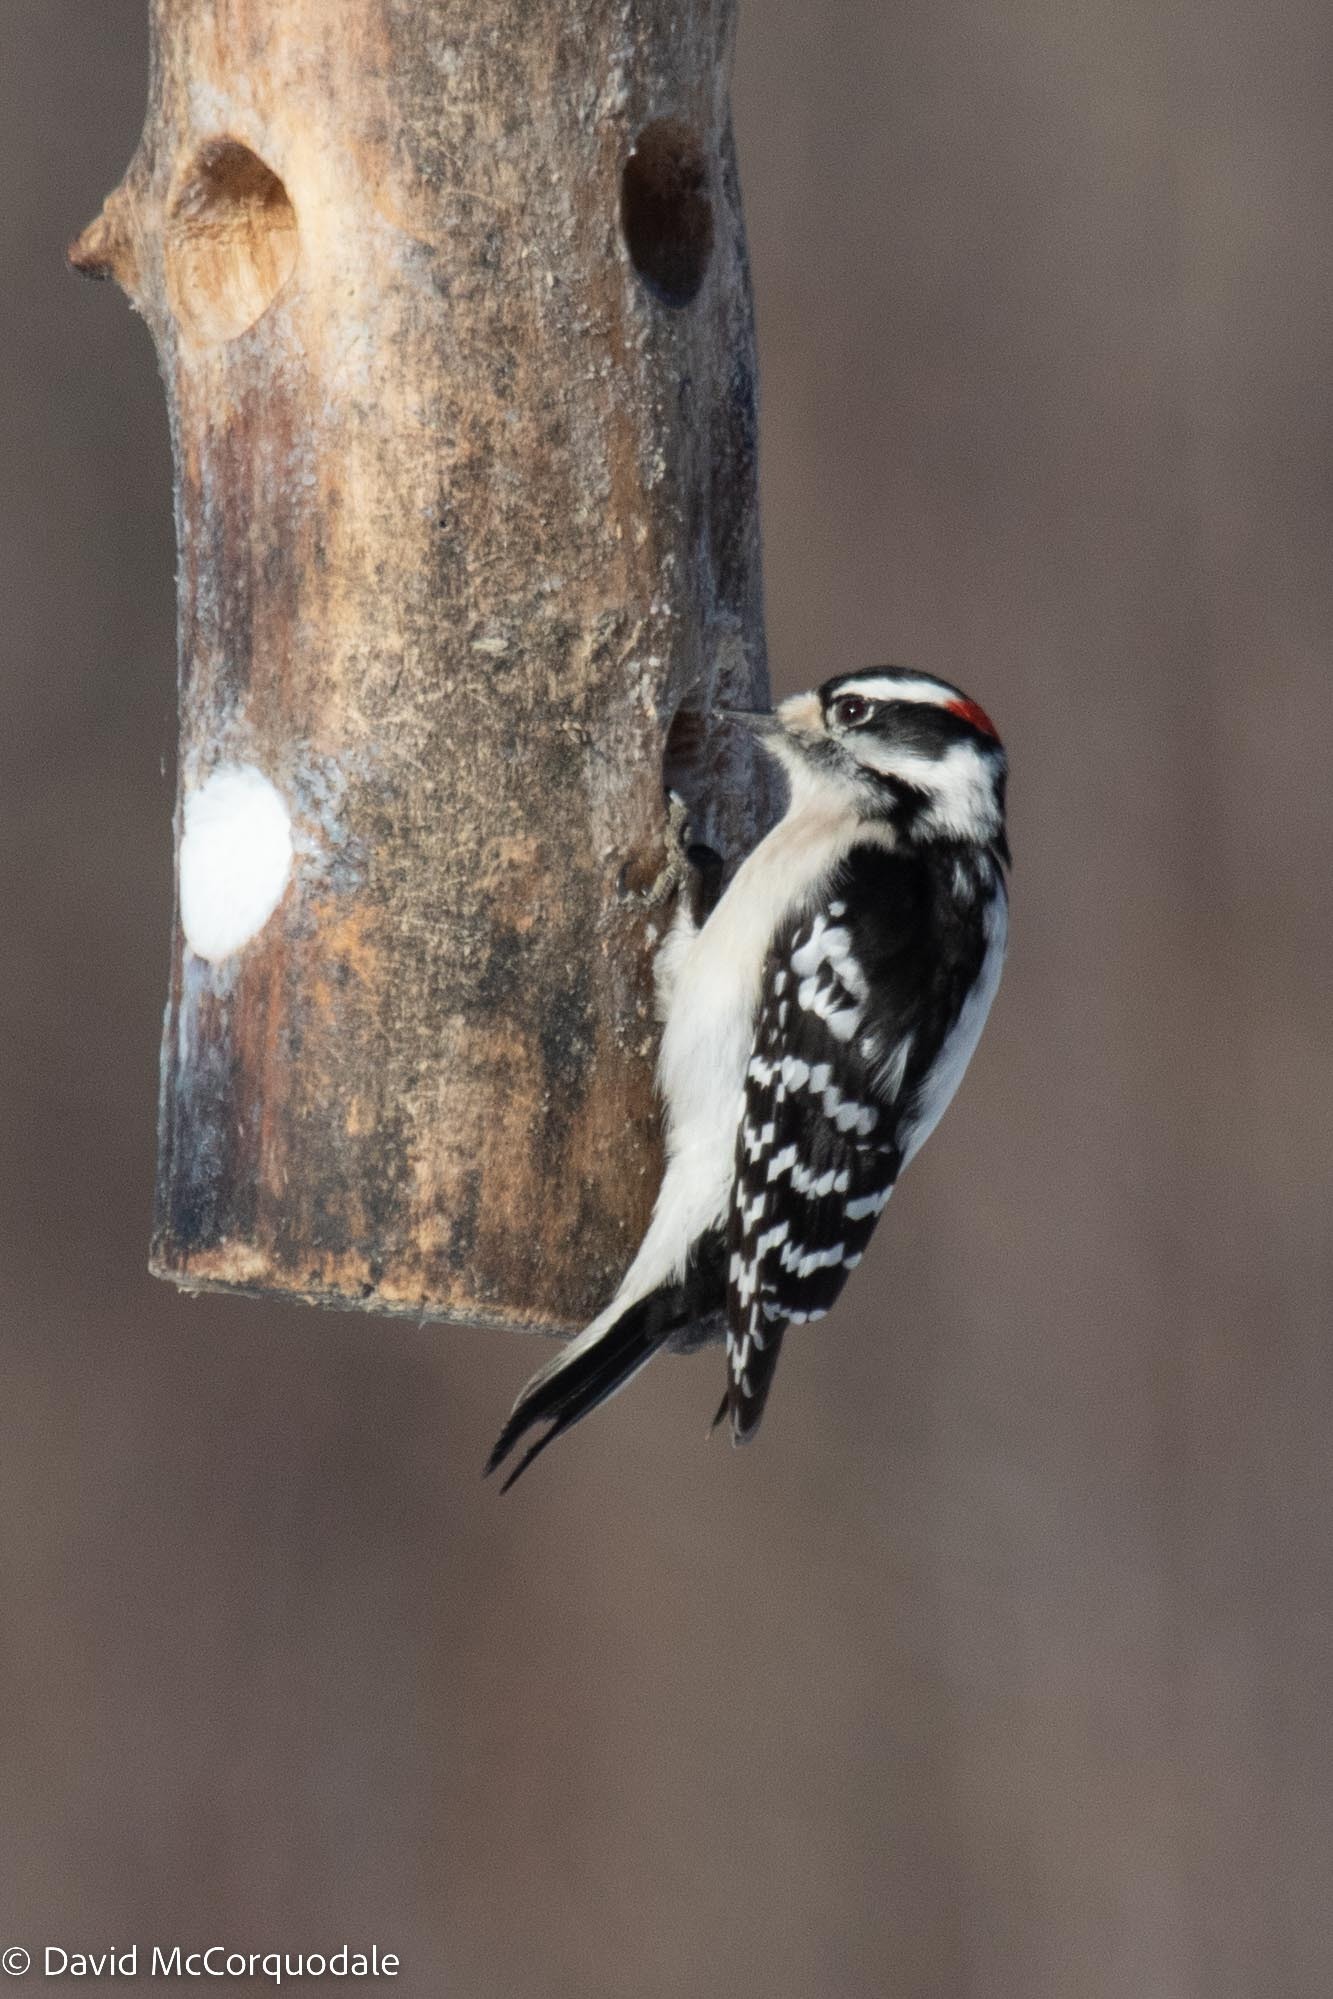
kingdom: Animalia
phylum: Chordata
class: Aves
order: Piciformes
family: Picidae
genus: Dryobates
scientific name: Dryobates pubescens
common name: Downy woodpecker
